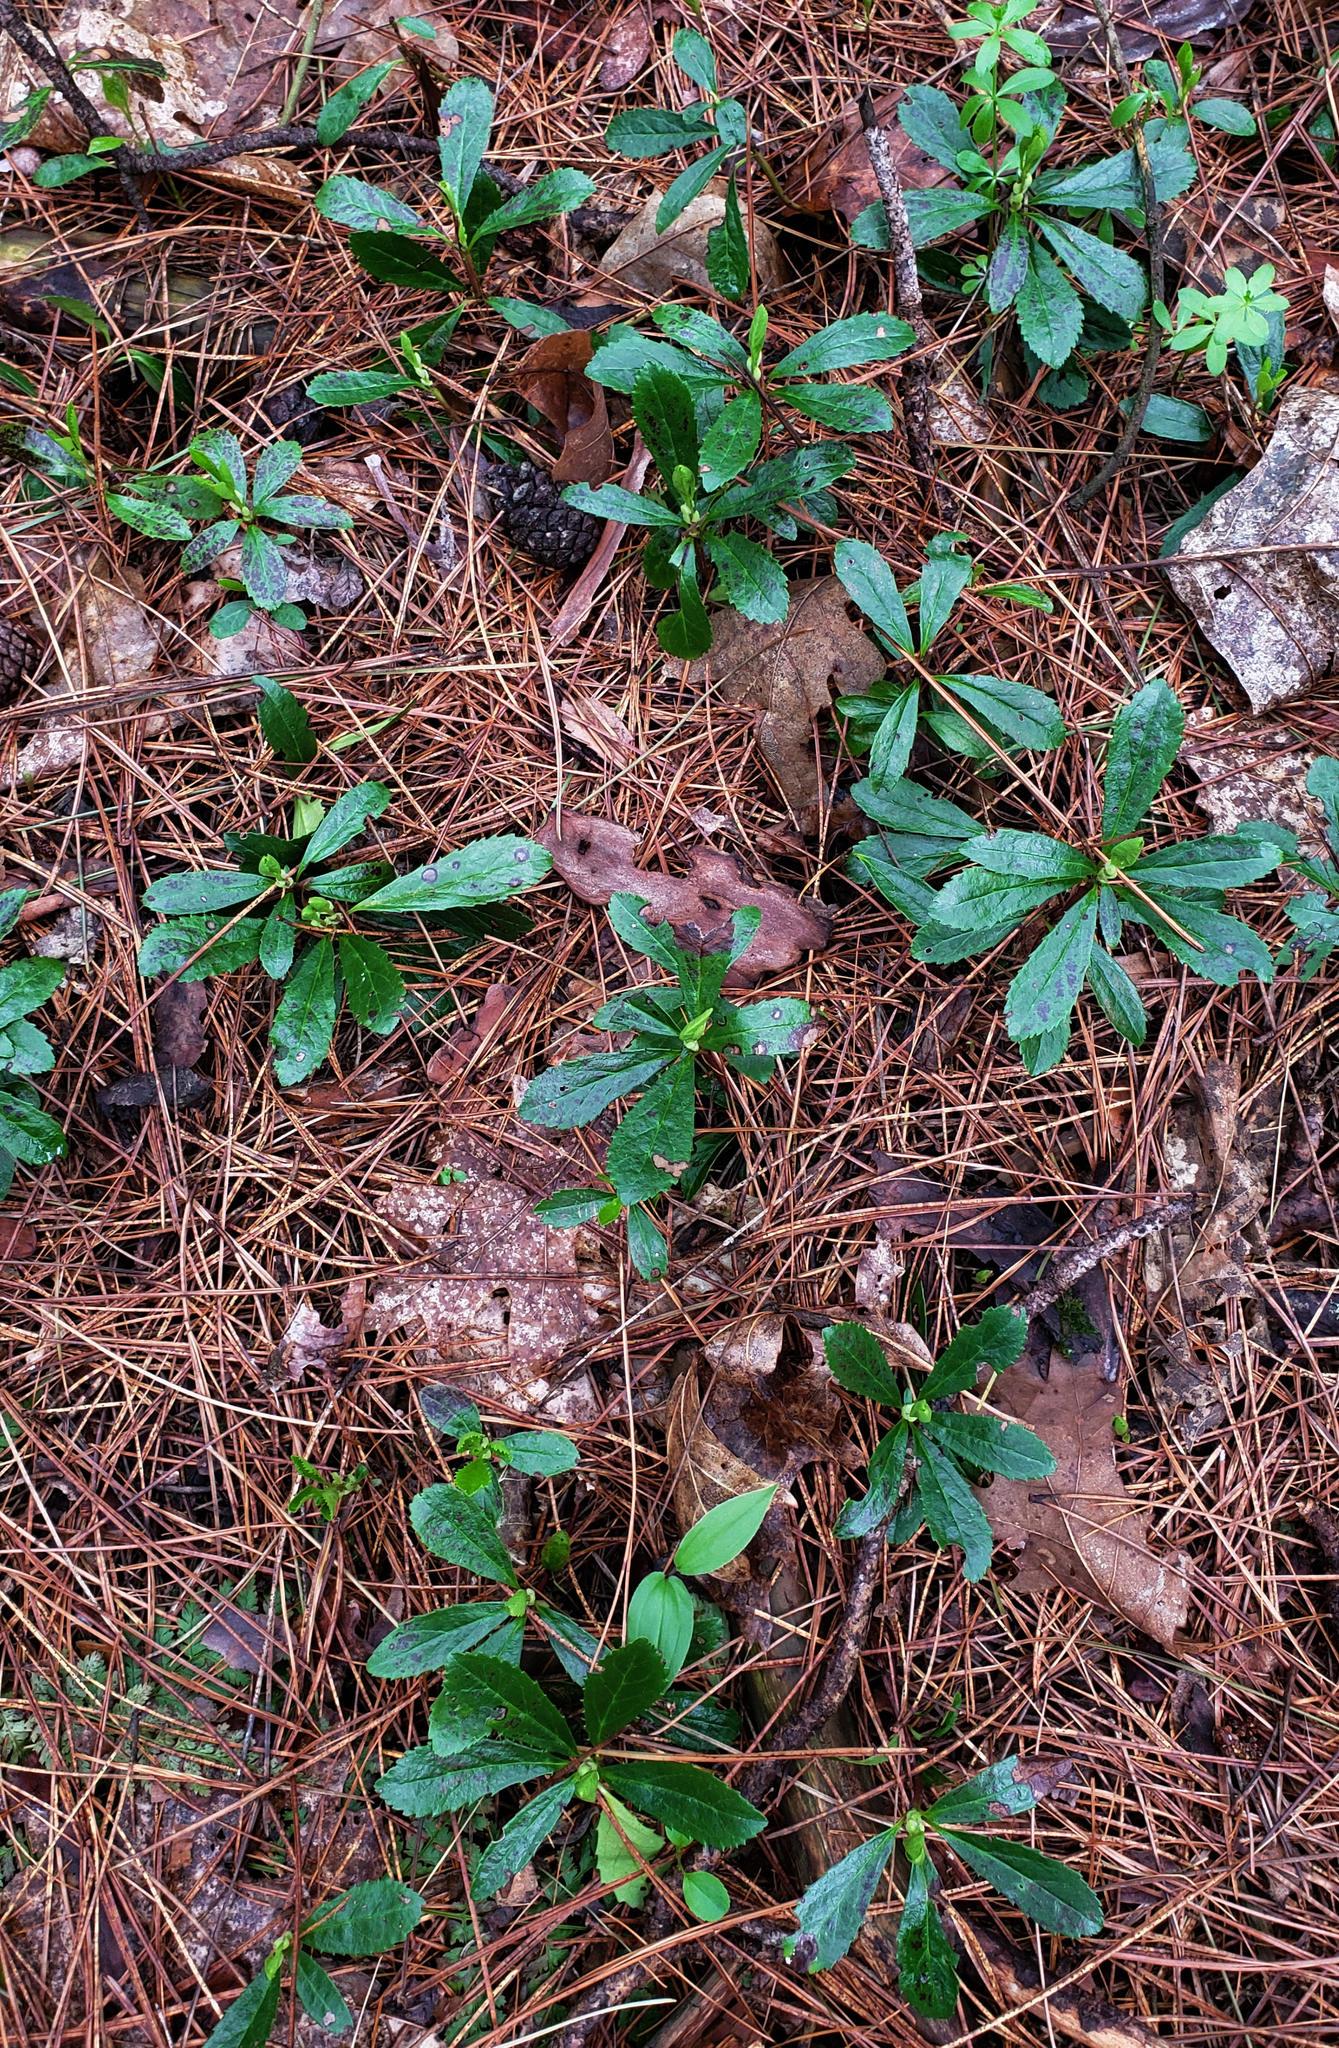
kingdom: Plantae
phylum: Tracheophyta
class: Magnoliopsida
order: Ericales
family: Ericaceae
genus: Chimaphila
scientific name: Chimaphila umbellata
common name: Pipsissewa
